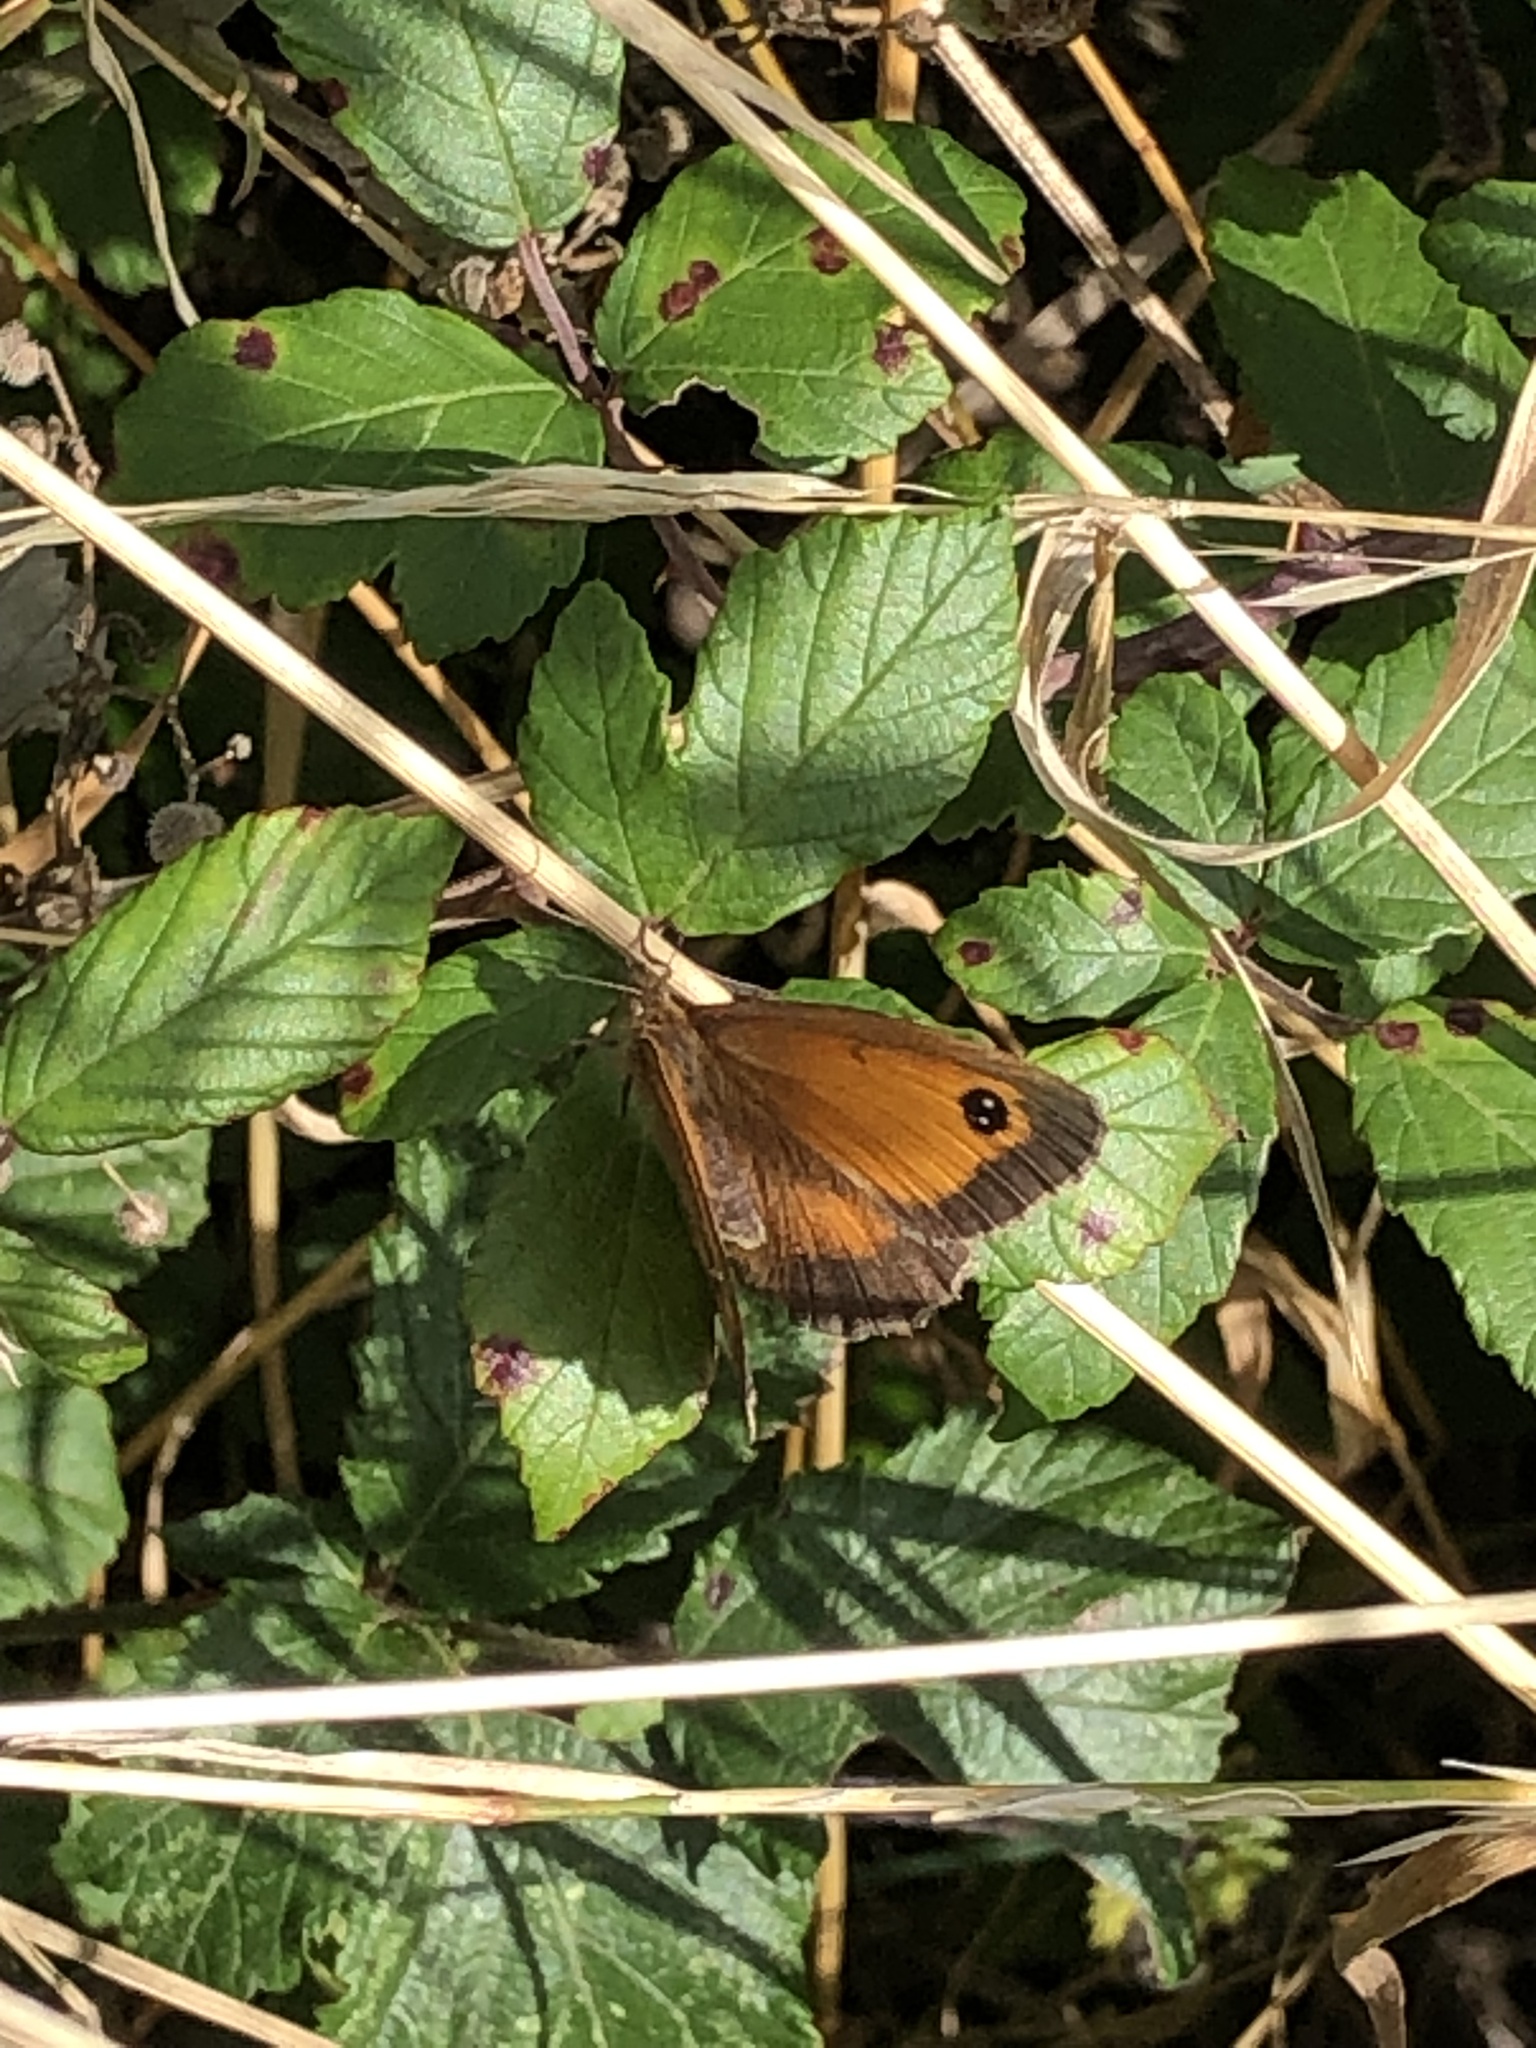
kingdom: Animalia
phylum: Arthropoda
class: Insecta
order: Lepidoptera
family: Nymphalidae
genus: Pyronia
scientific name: Pyronia tithonus
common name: Gatekeeper
